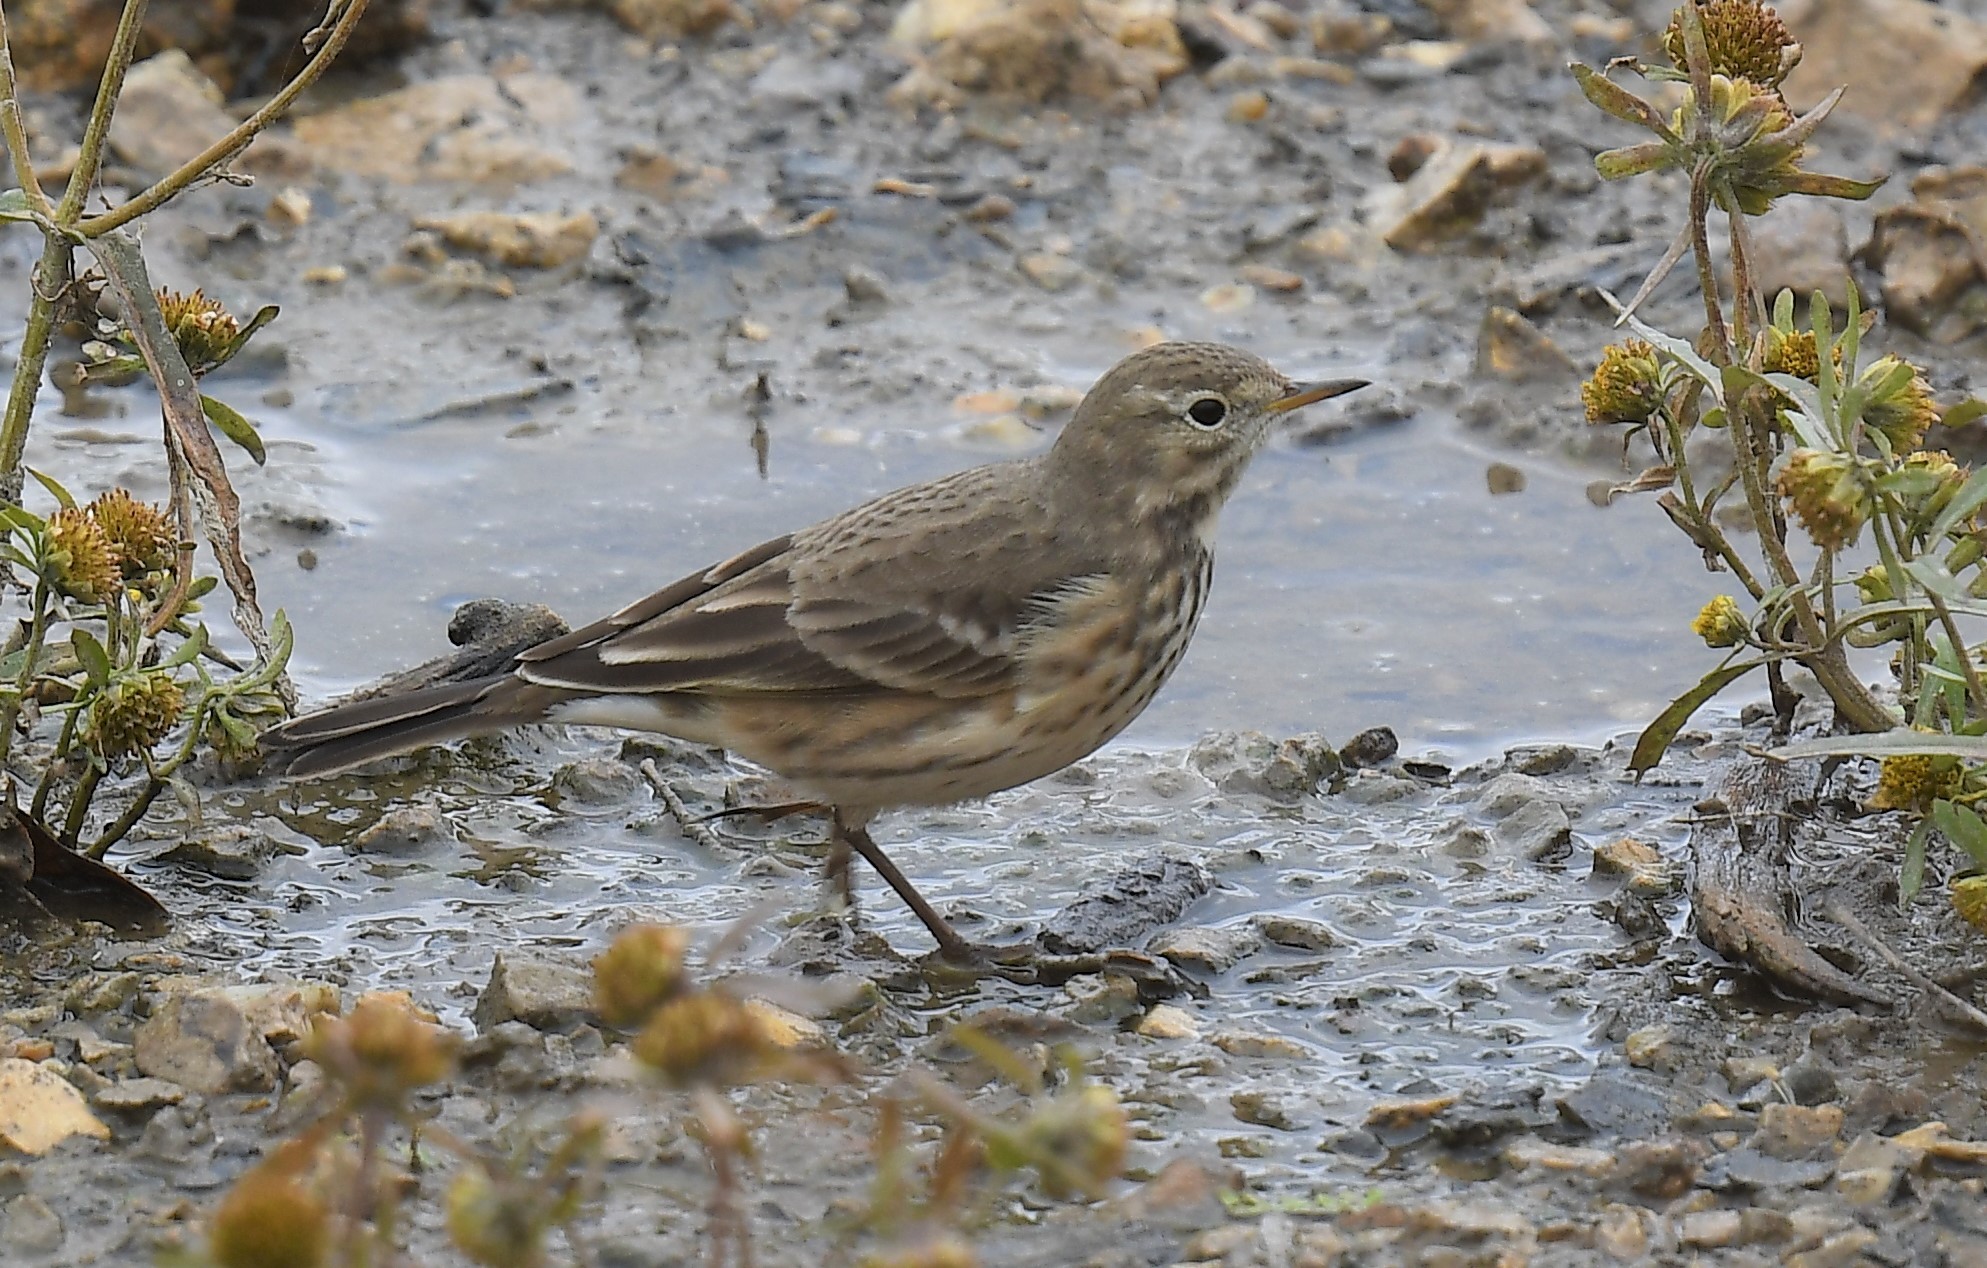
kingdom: Animalia
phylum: Chordata
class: Aves
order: Passeriformes
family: Motacillidae
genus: Anthus
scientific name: Anthus rubescens
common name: Buff-bellied pipit
